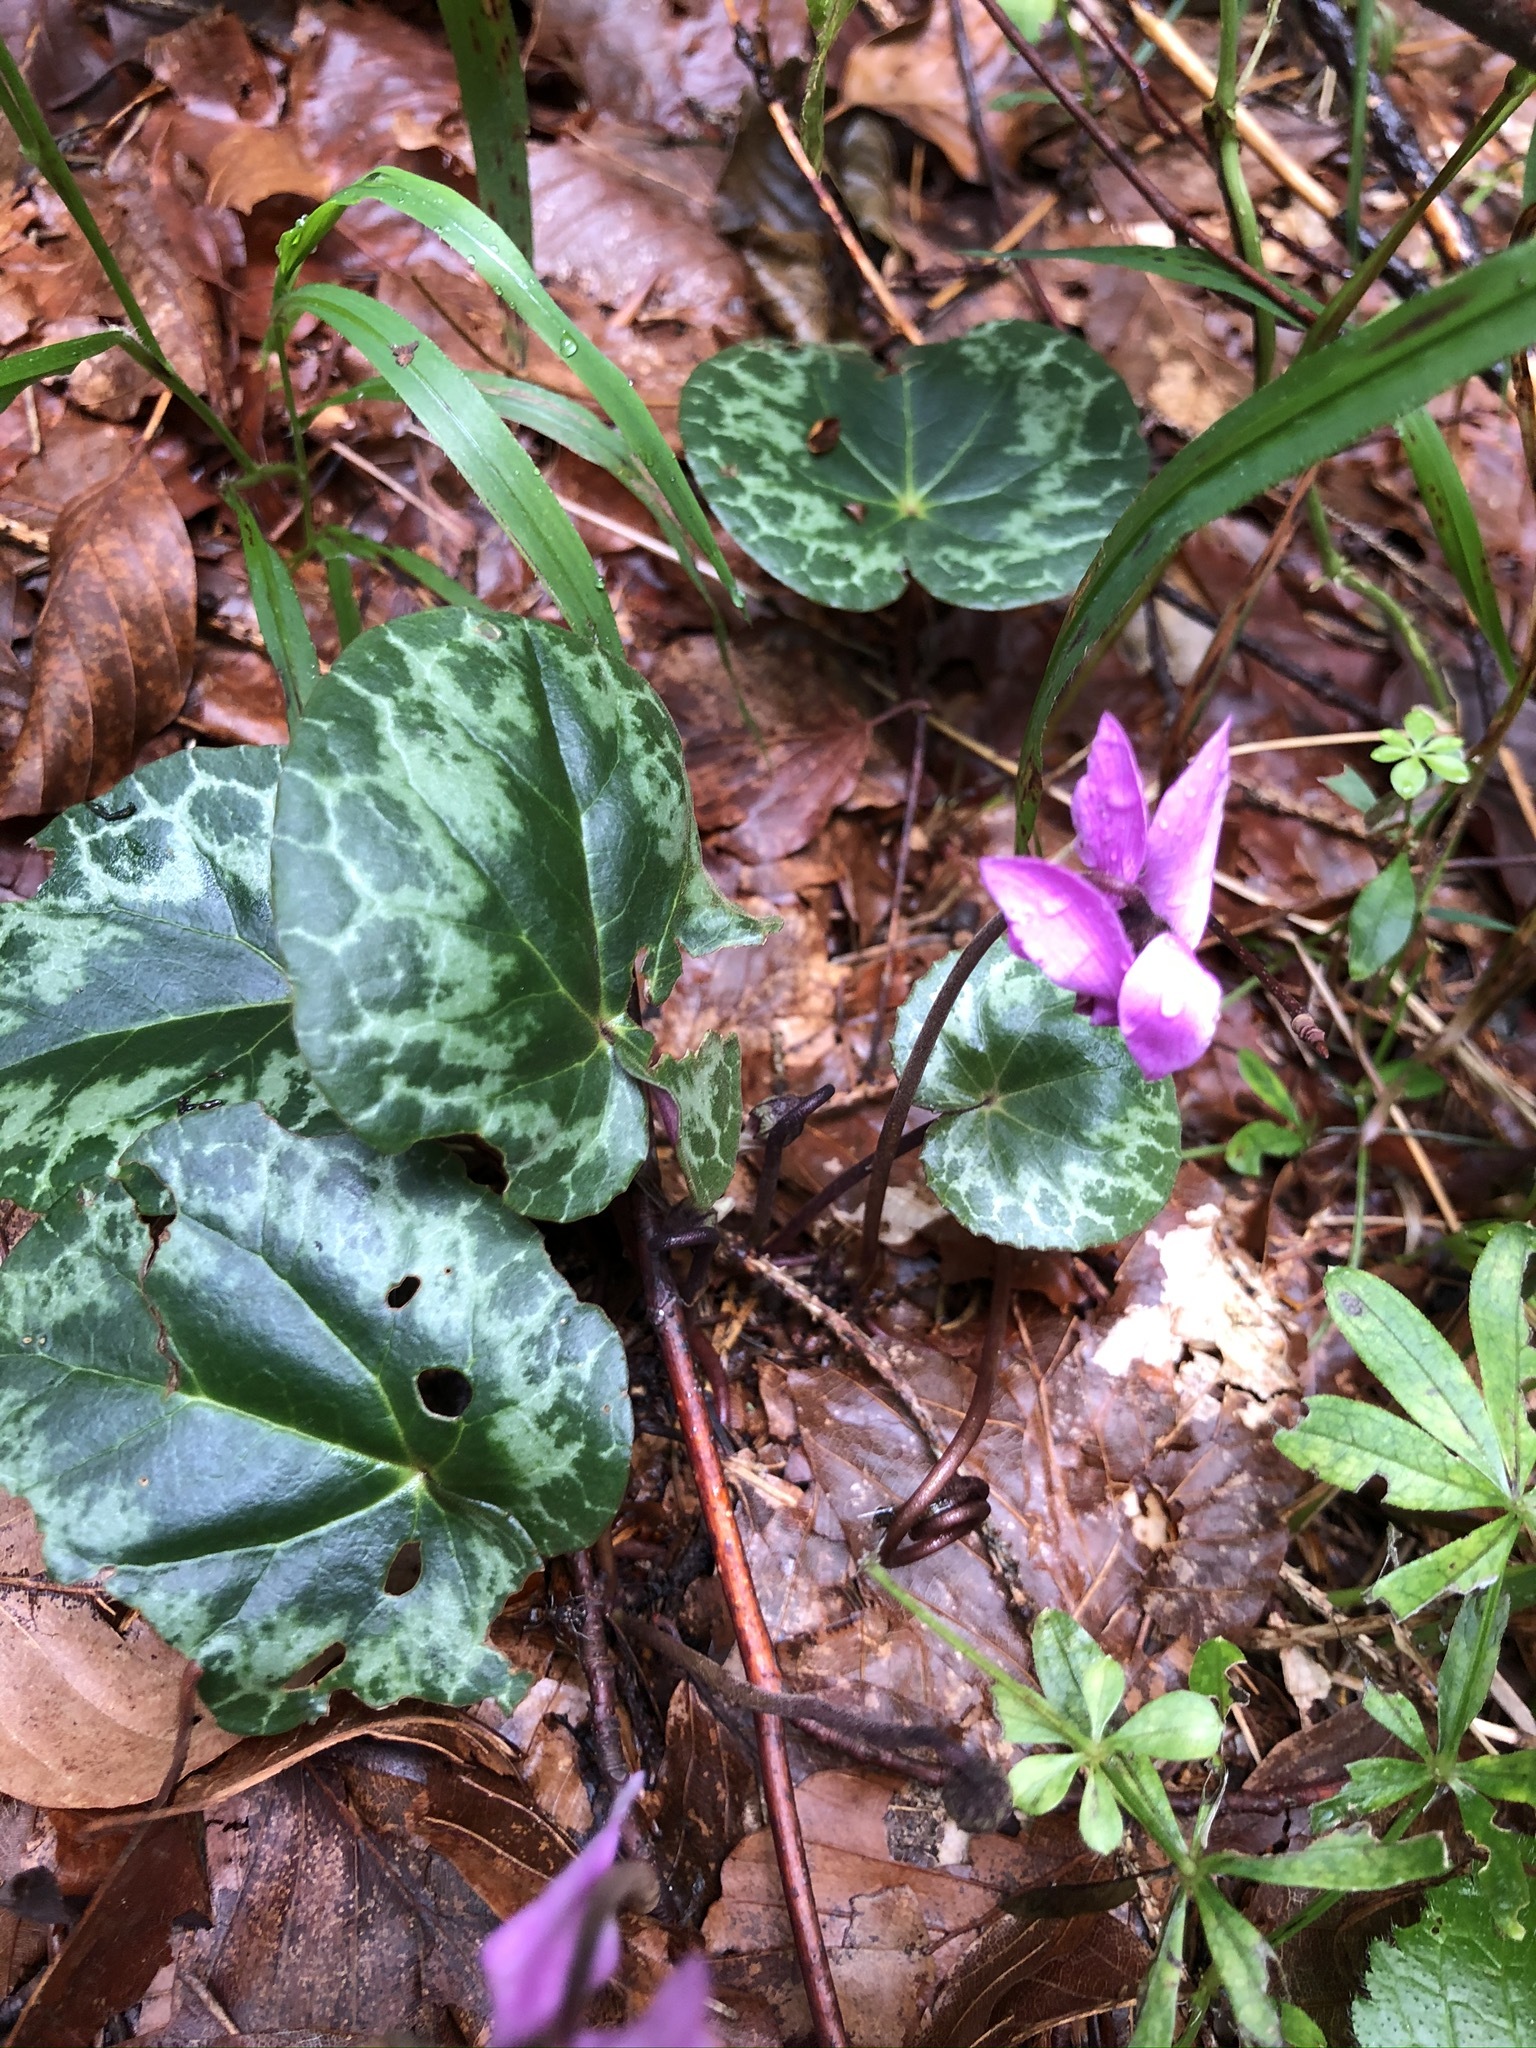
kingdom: Plantae
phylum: Tracheophyta
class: Magnoliopsida
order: Ericales
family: Primulaceae
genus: Cyclamen
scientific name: Cyclamen purpurascens
